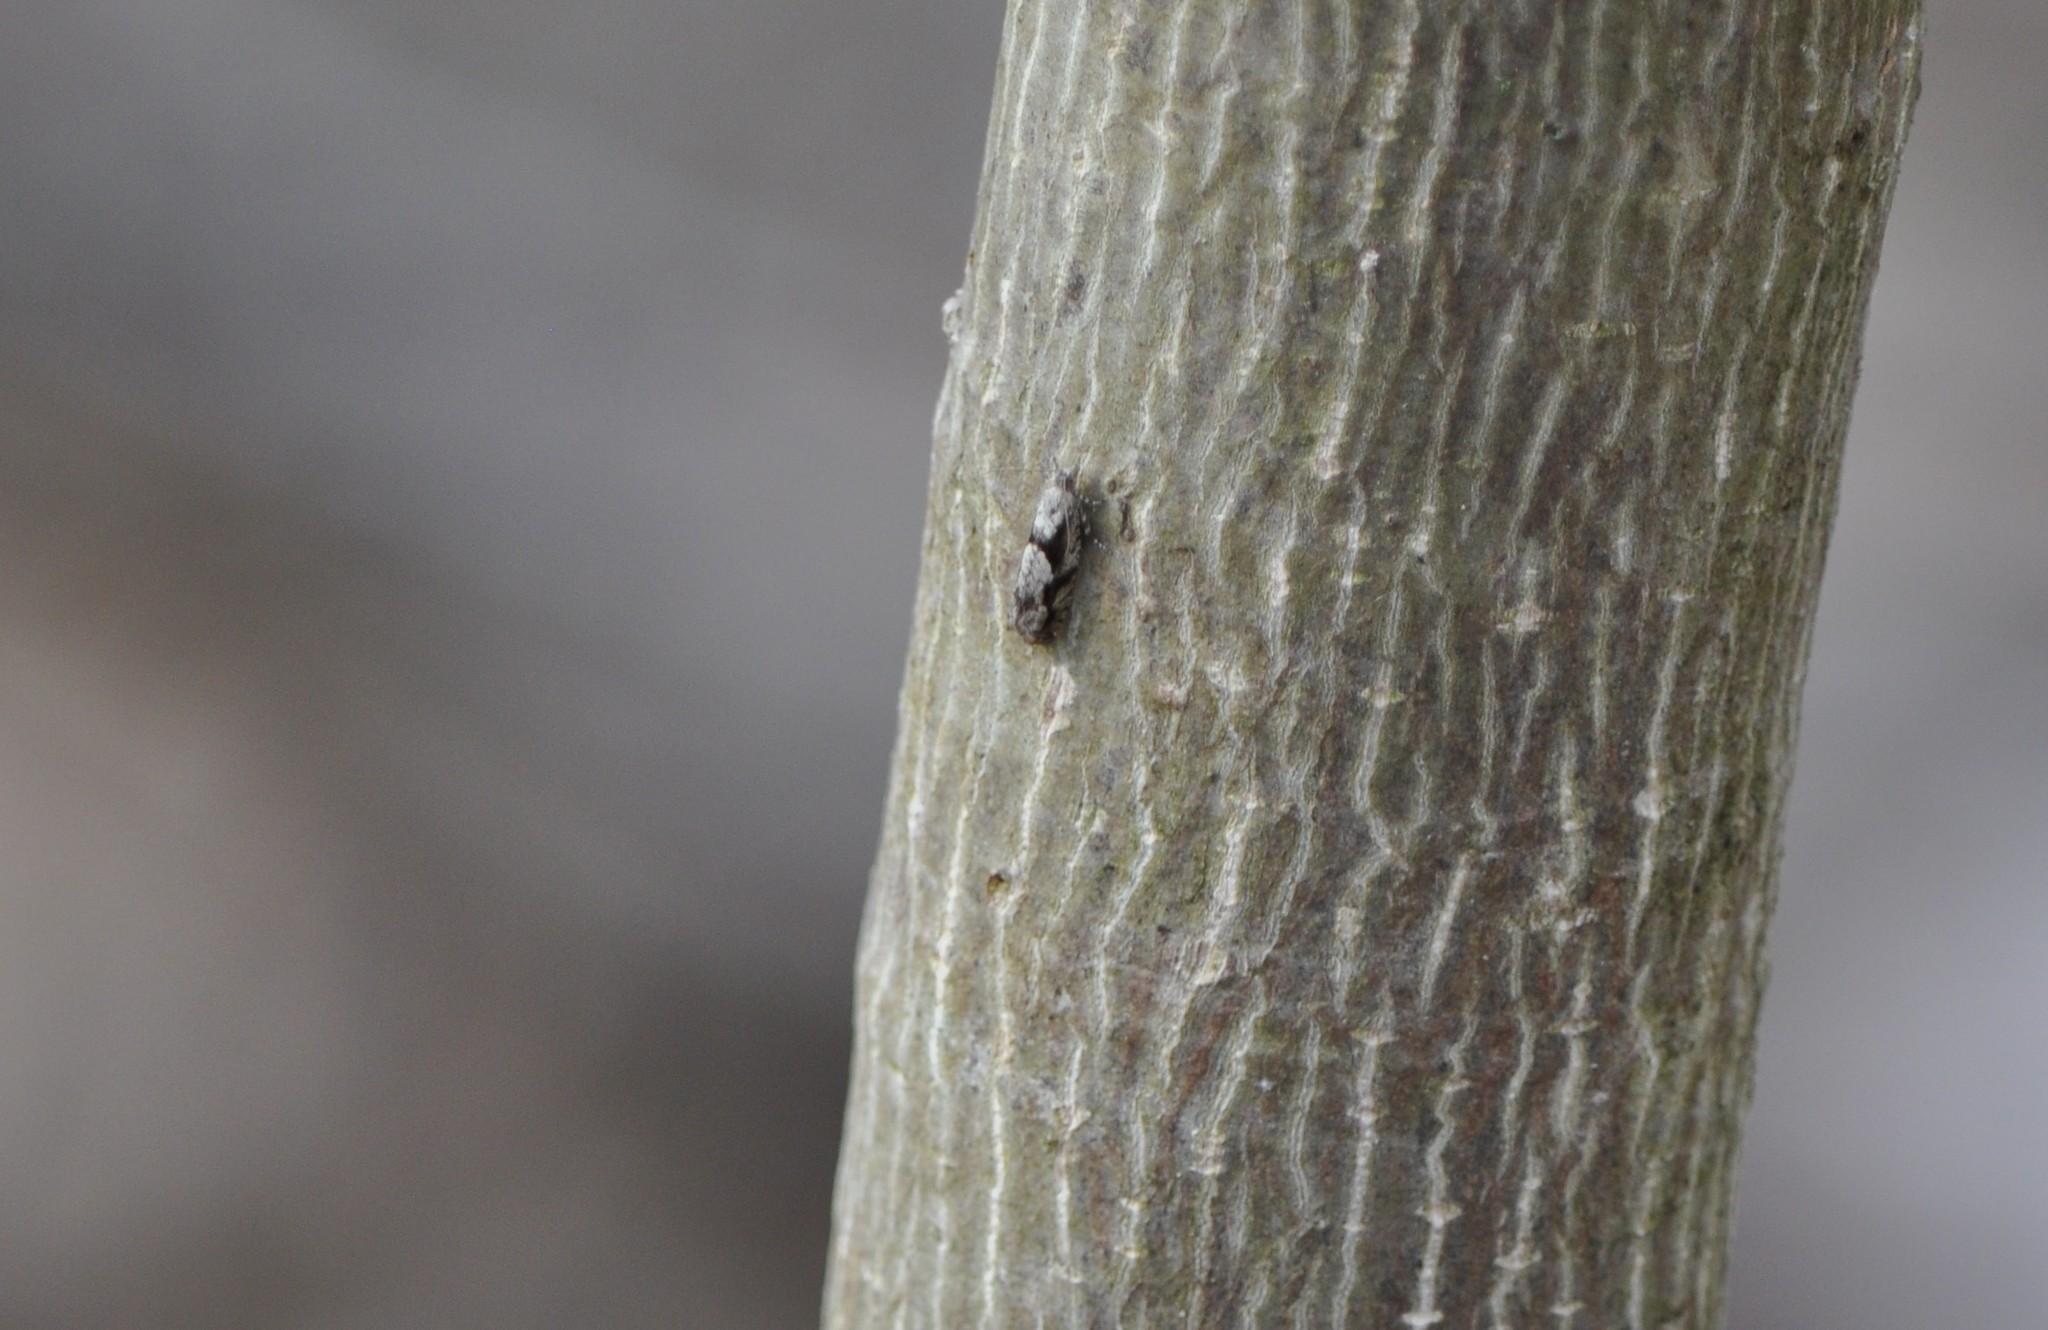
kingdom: Animalia
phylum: Arthropoda
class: Insecta
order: Lepidoptera
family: Gelechiidae
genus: Arogalea
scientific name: Arogalea cristifasciella
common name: White stripe-backed moth
